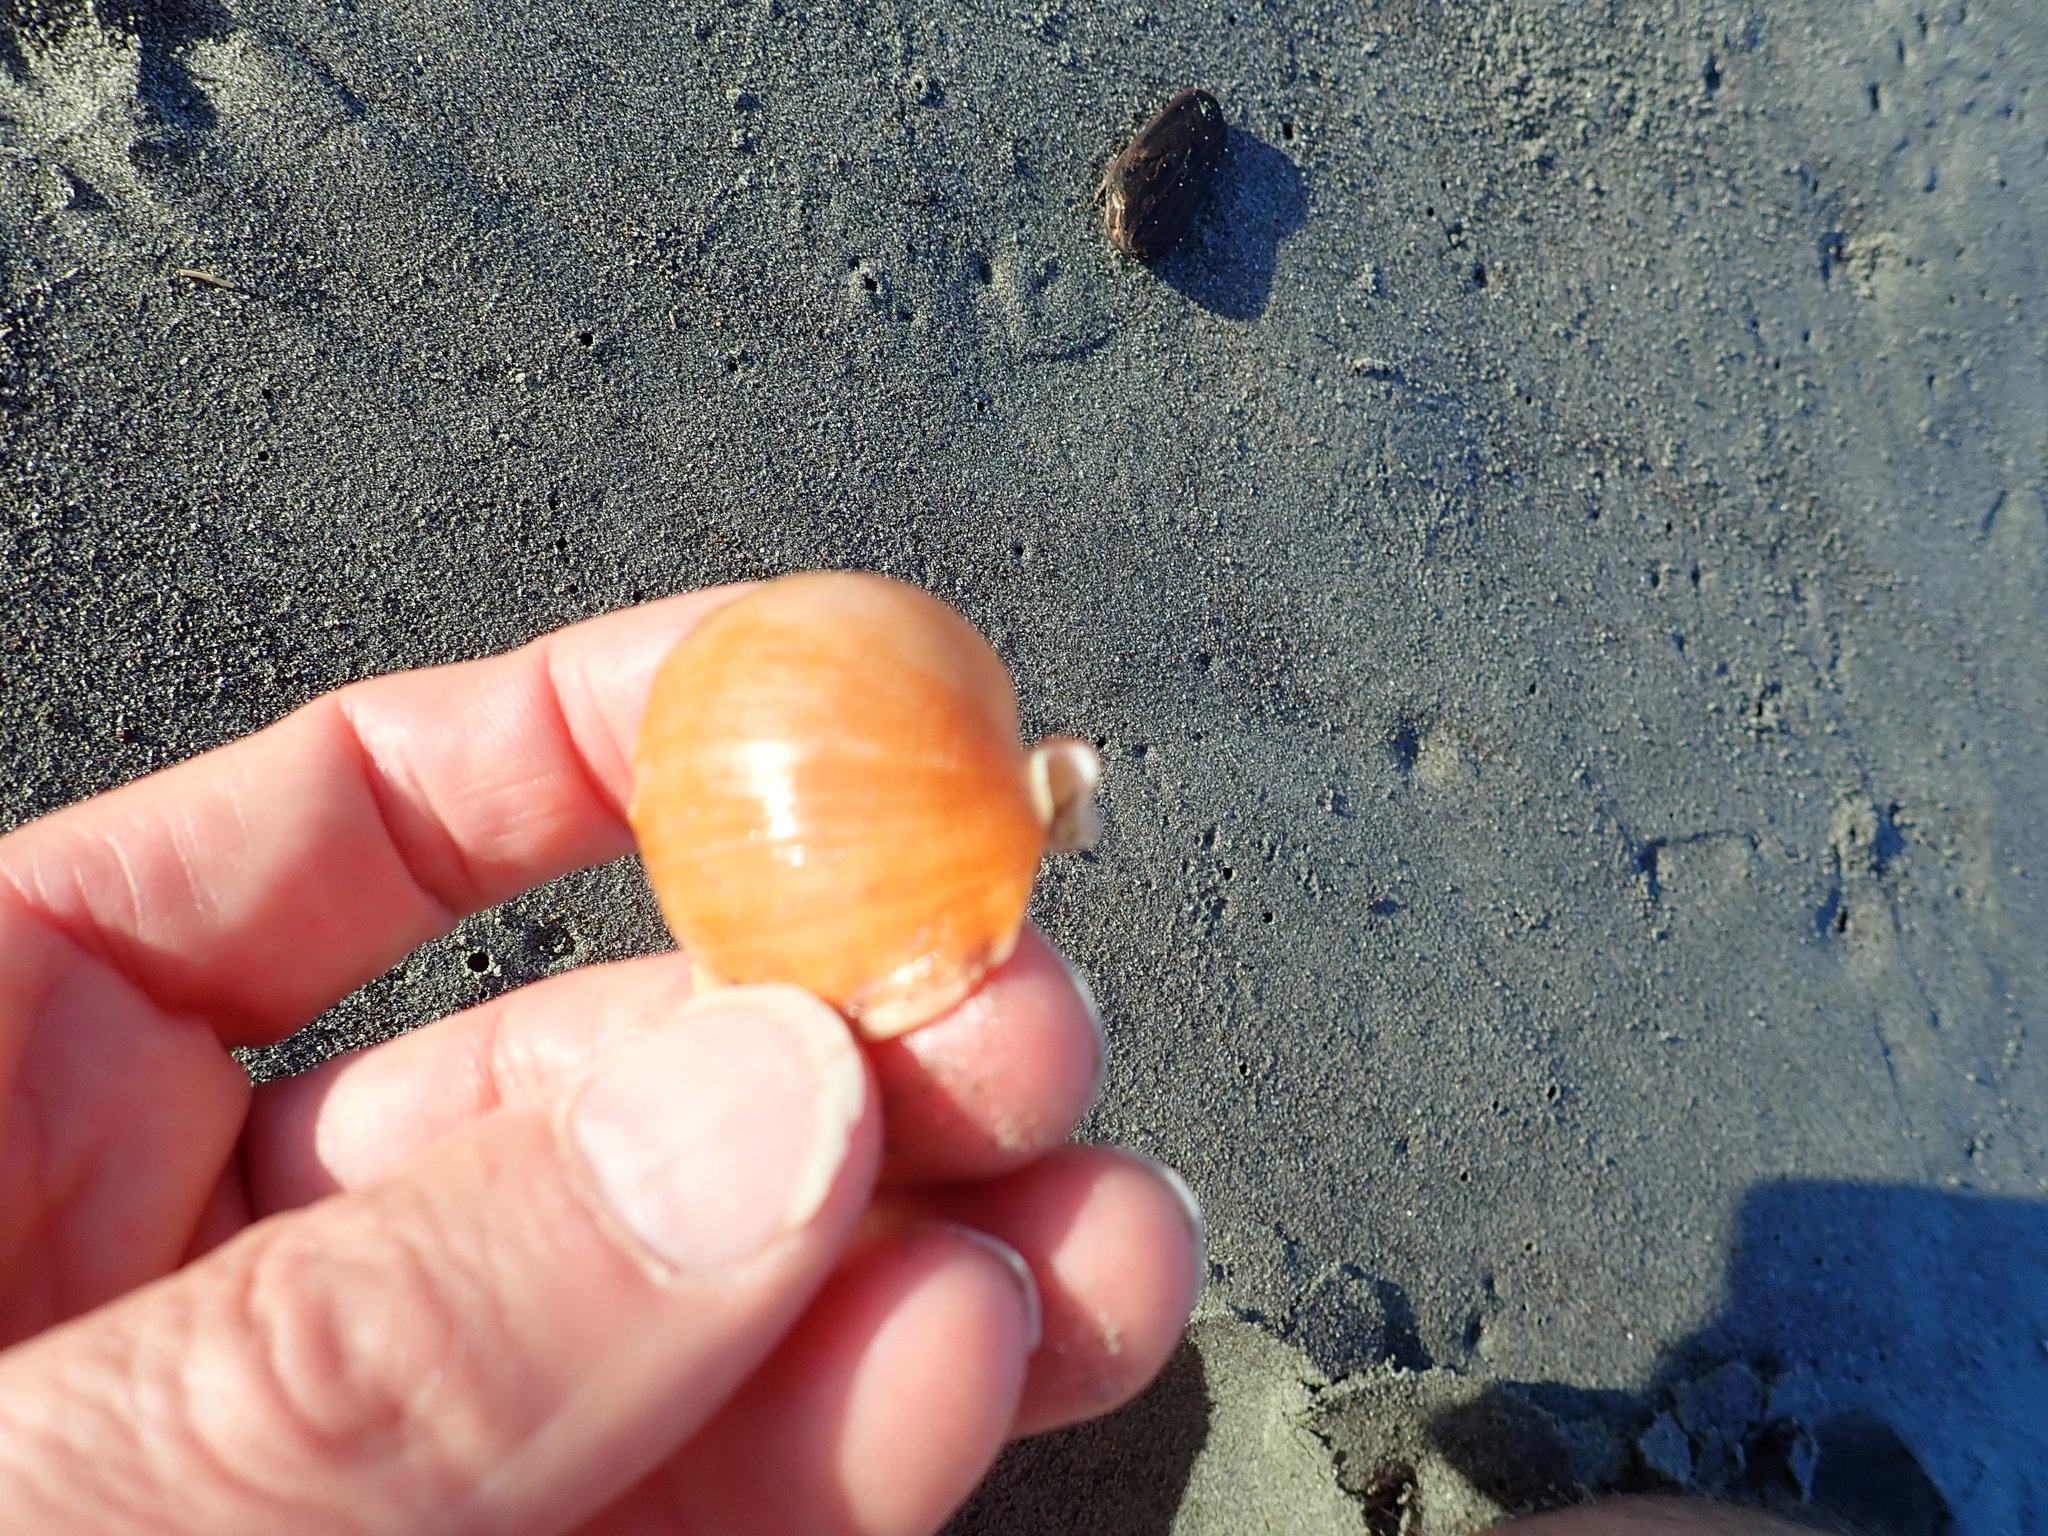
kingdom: Animalia
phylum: Mollusca
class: Gastropoda
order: Littorinimorpha
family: Cassidae
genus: Semicassis
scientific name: Semicassis pyrum
